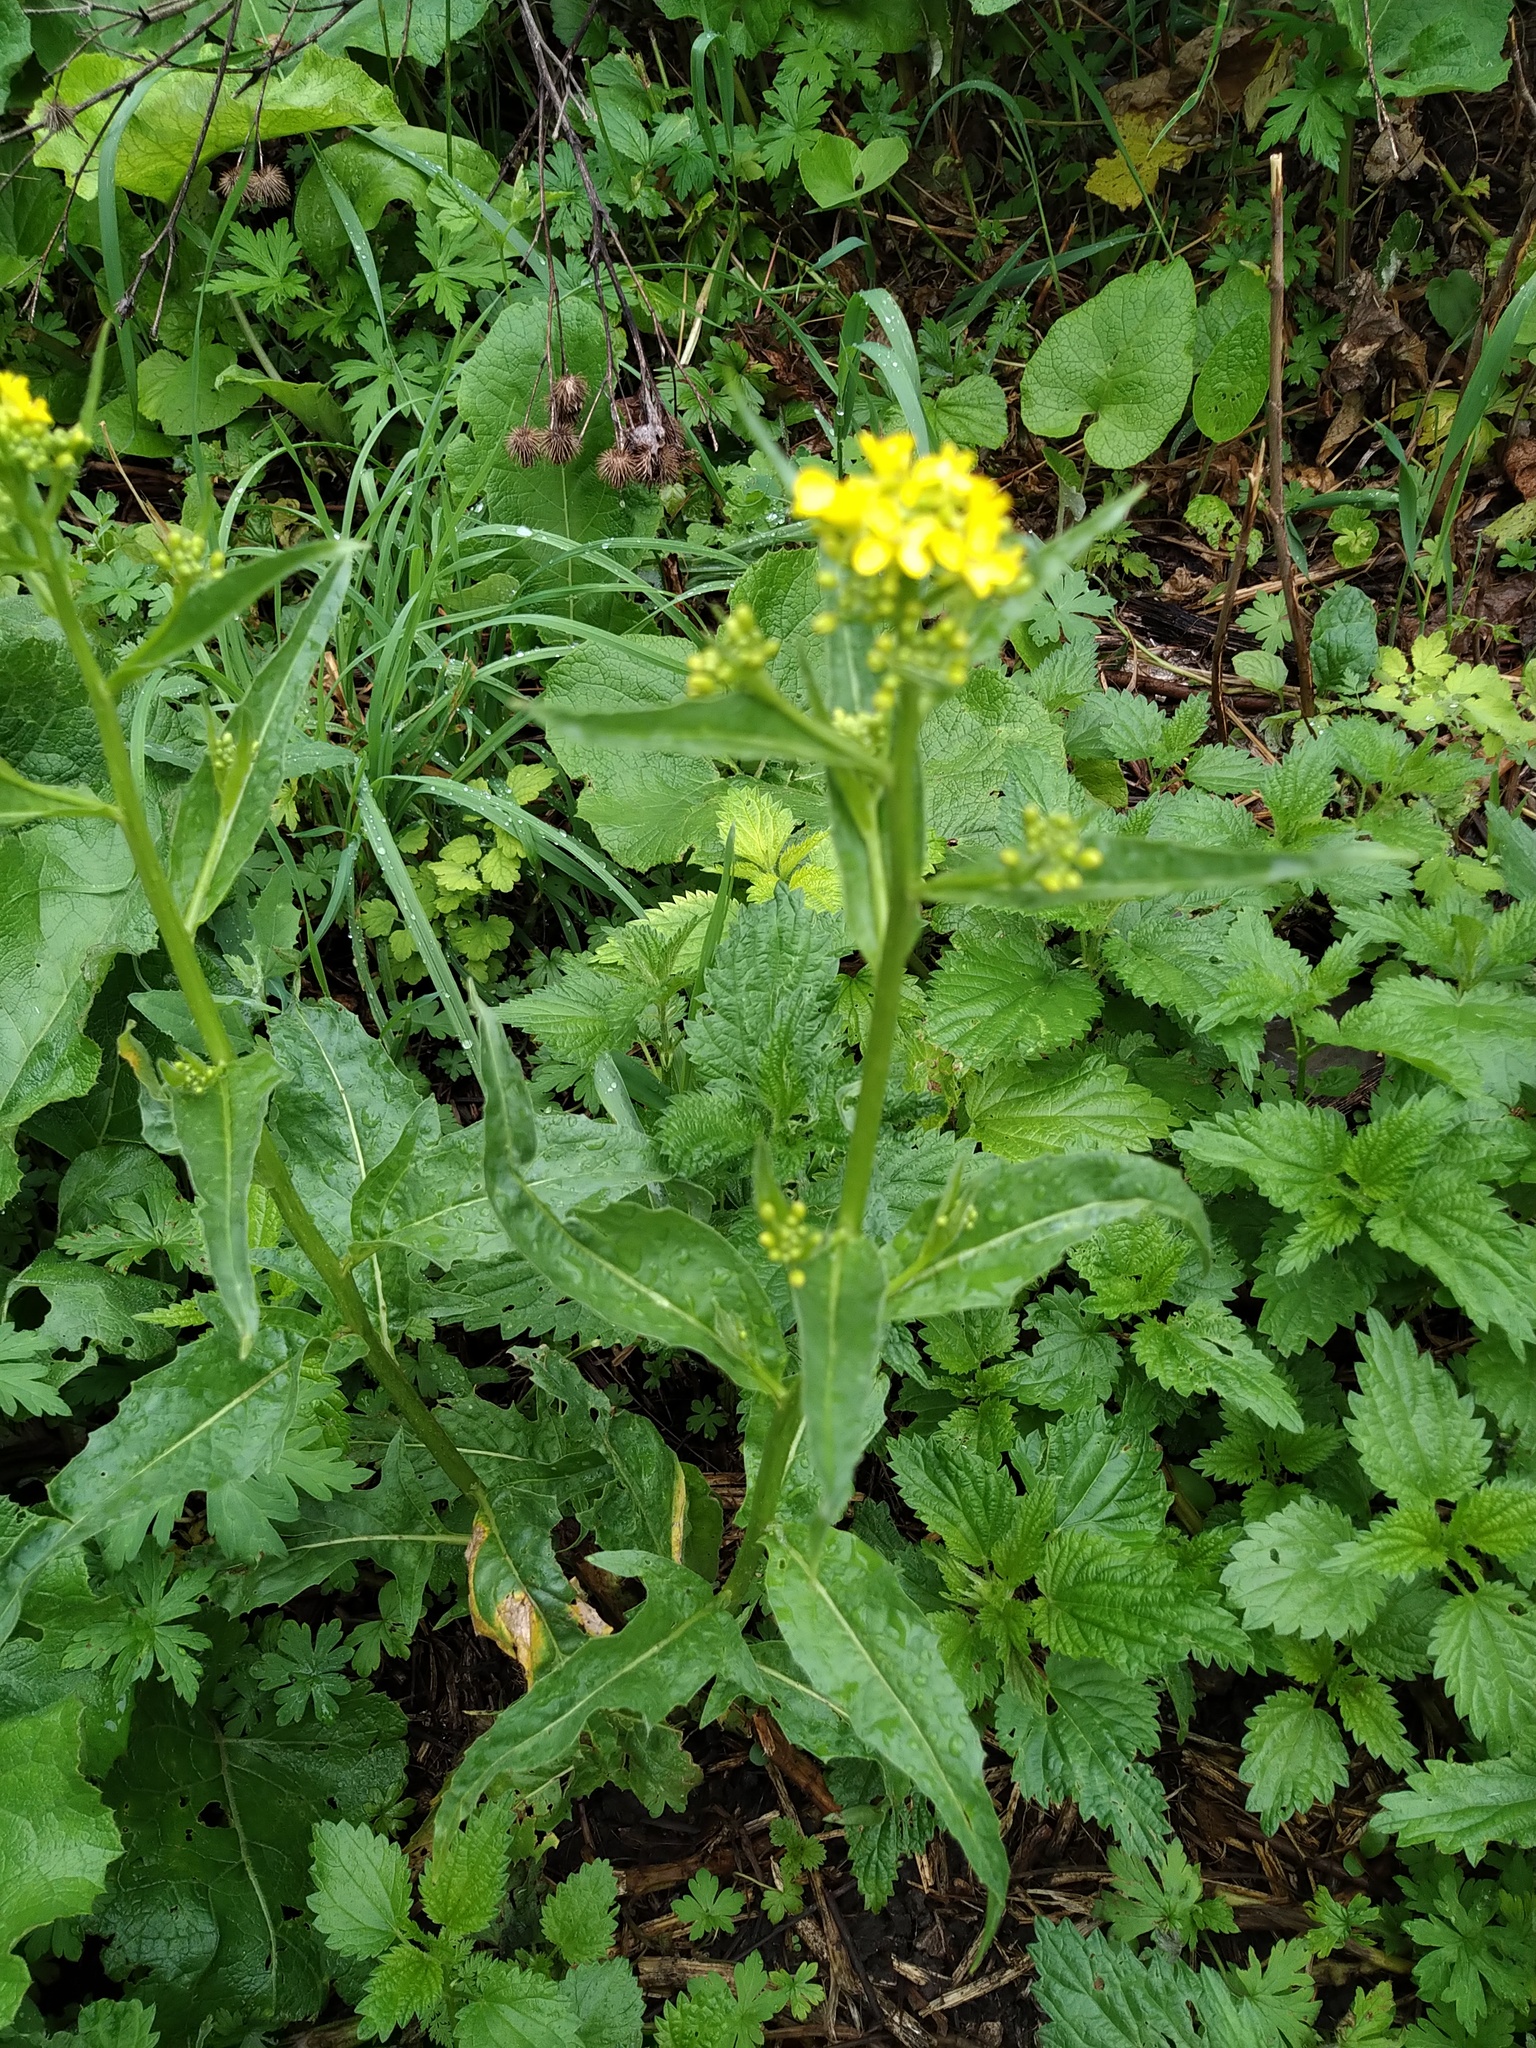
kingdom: Plantae
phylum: Tracheophyta
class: Magnoliopsida
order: Brassicales
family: Brassicaceae
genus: Erysimum
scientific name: Erysimum cheiranthoides
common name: Treacle mustard
